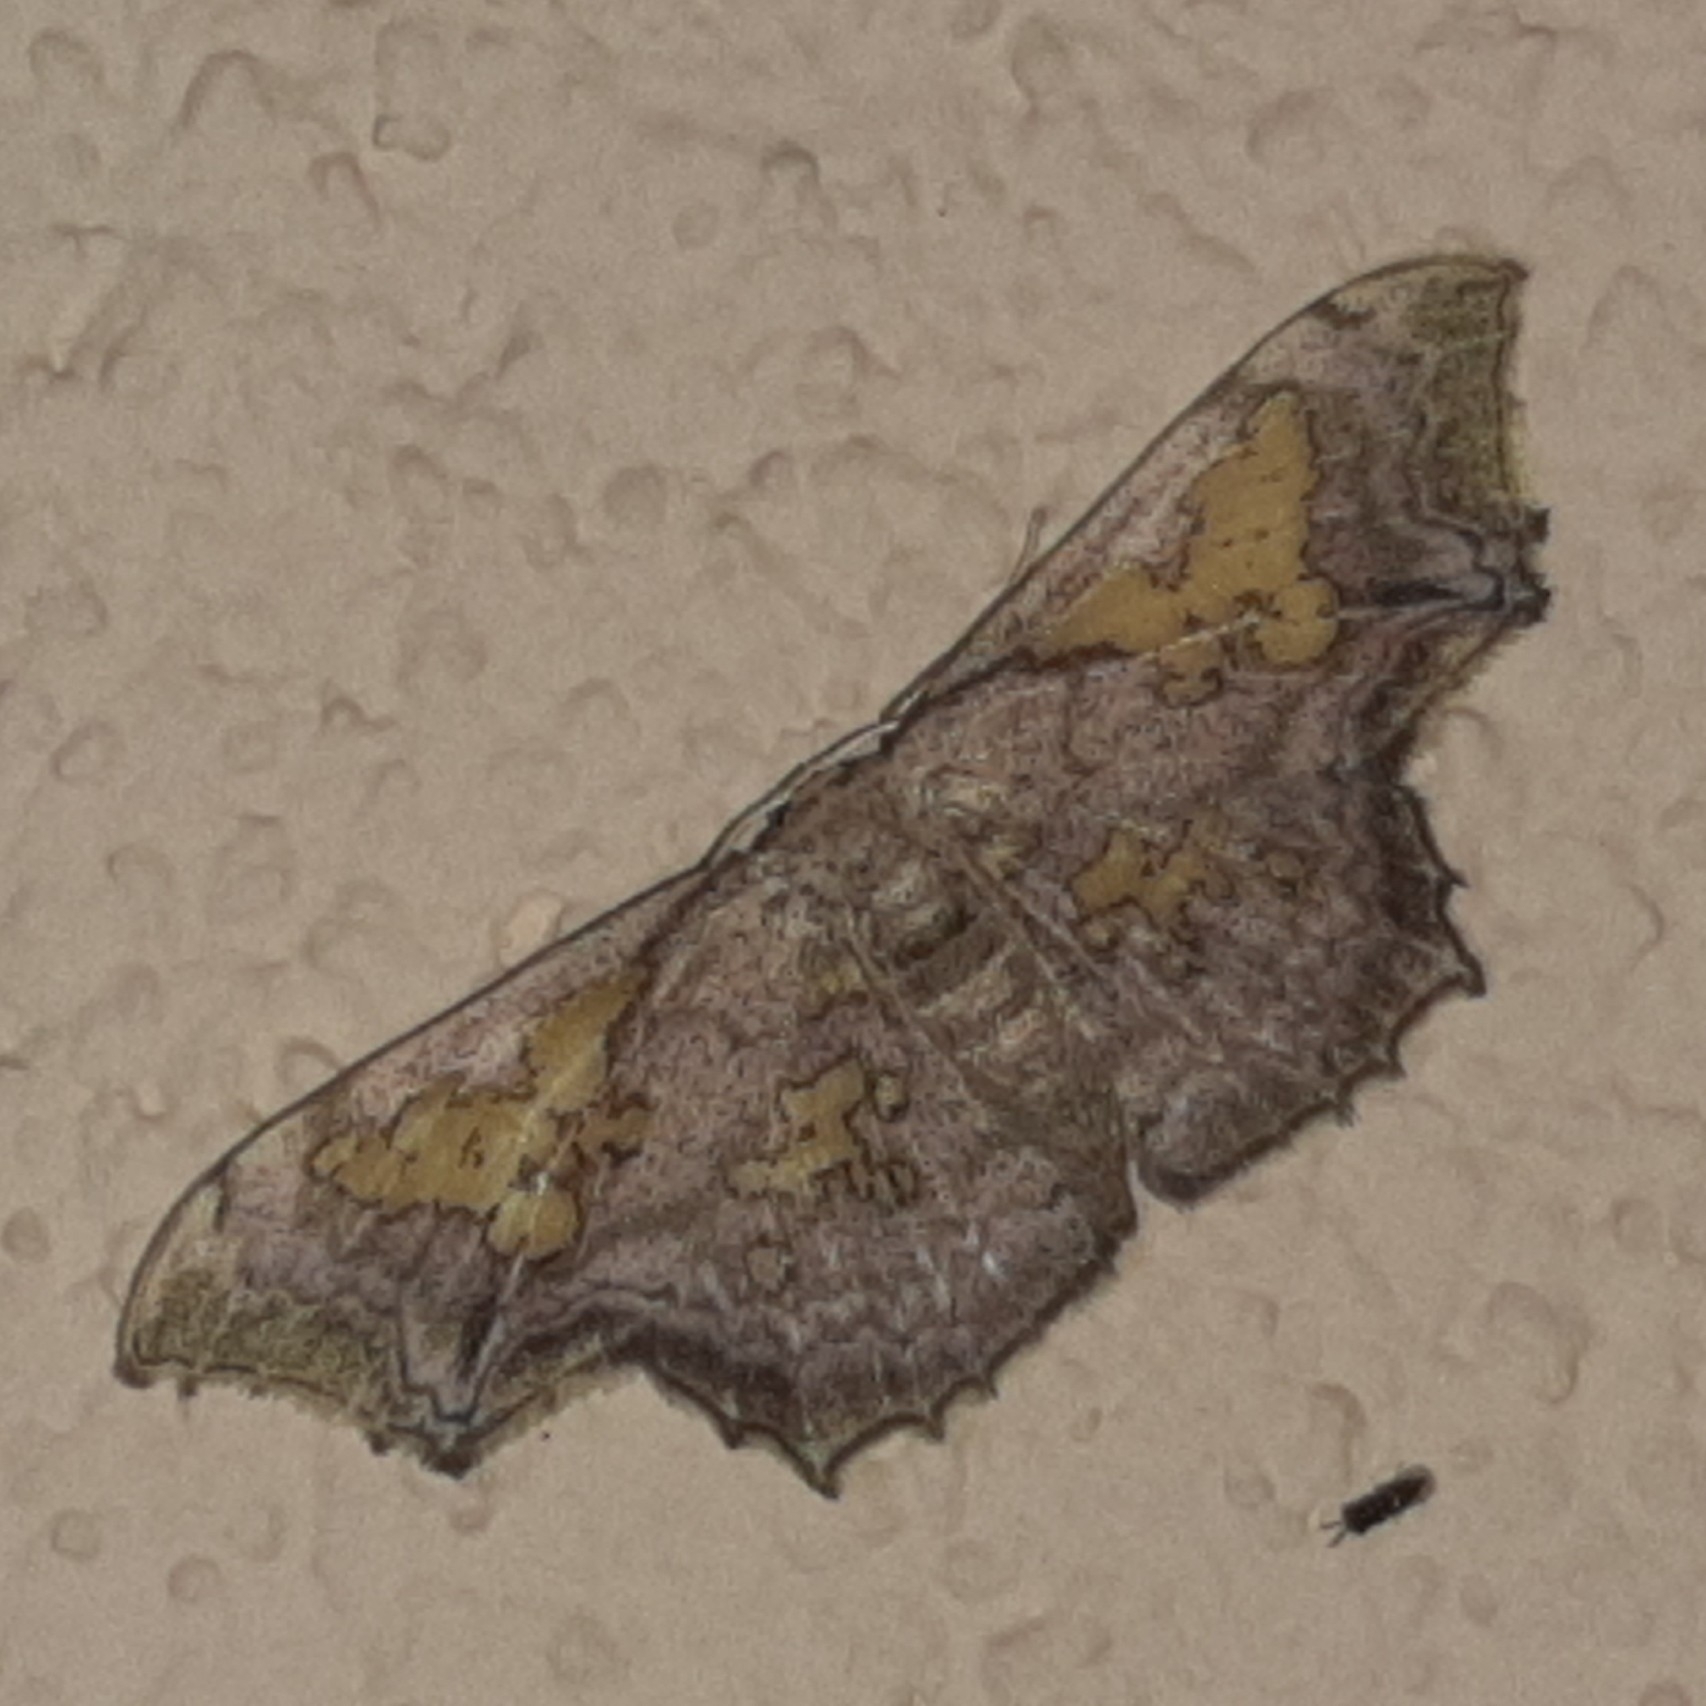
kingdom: Animalia
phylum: Arthropoda
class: Insecta
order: Lepidoptera
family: Geometridae
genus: Pseudasellodes
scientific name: Pseudasellodes fenestraria
